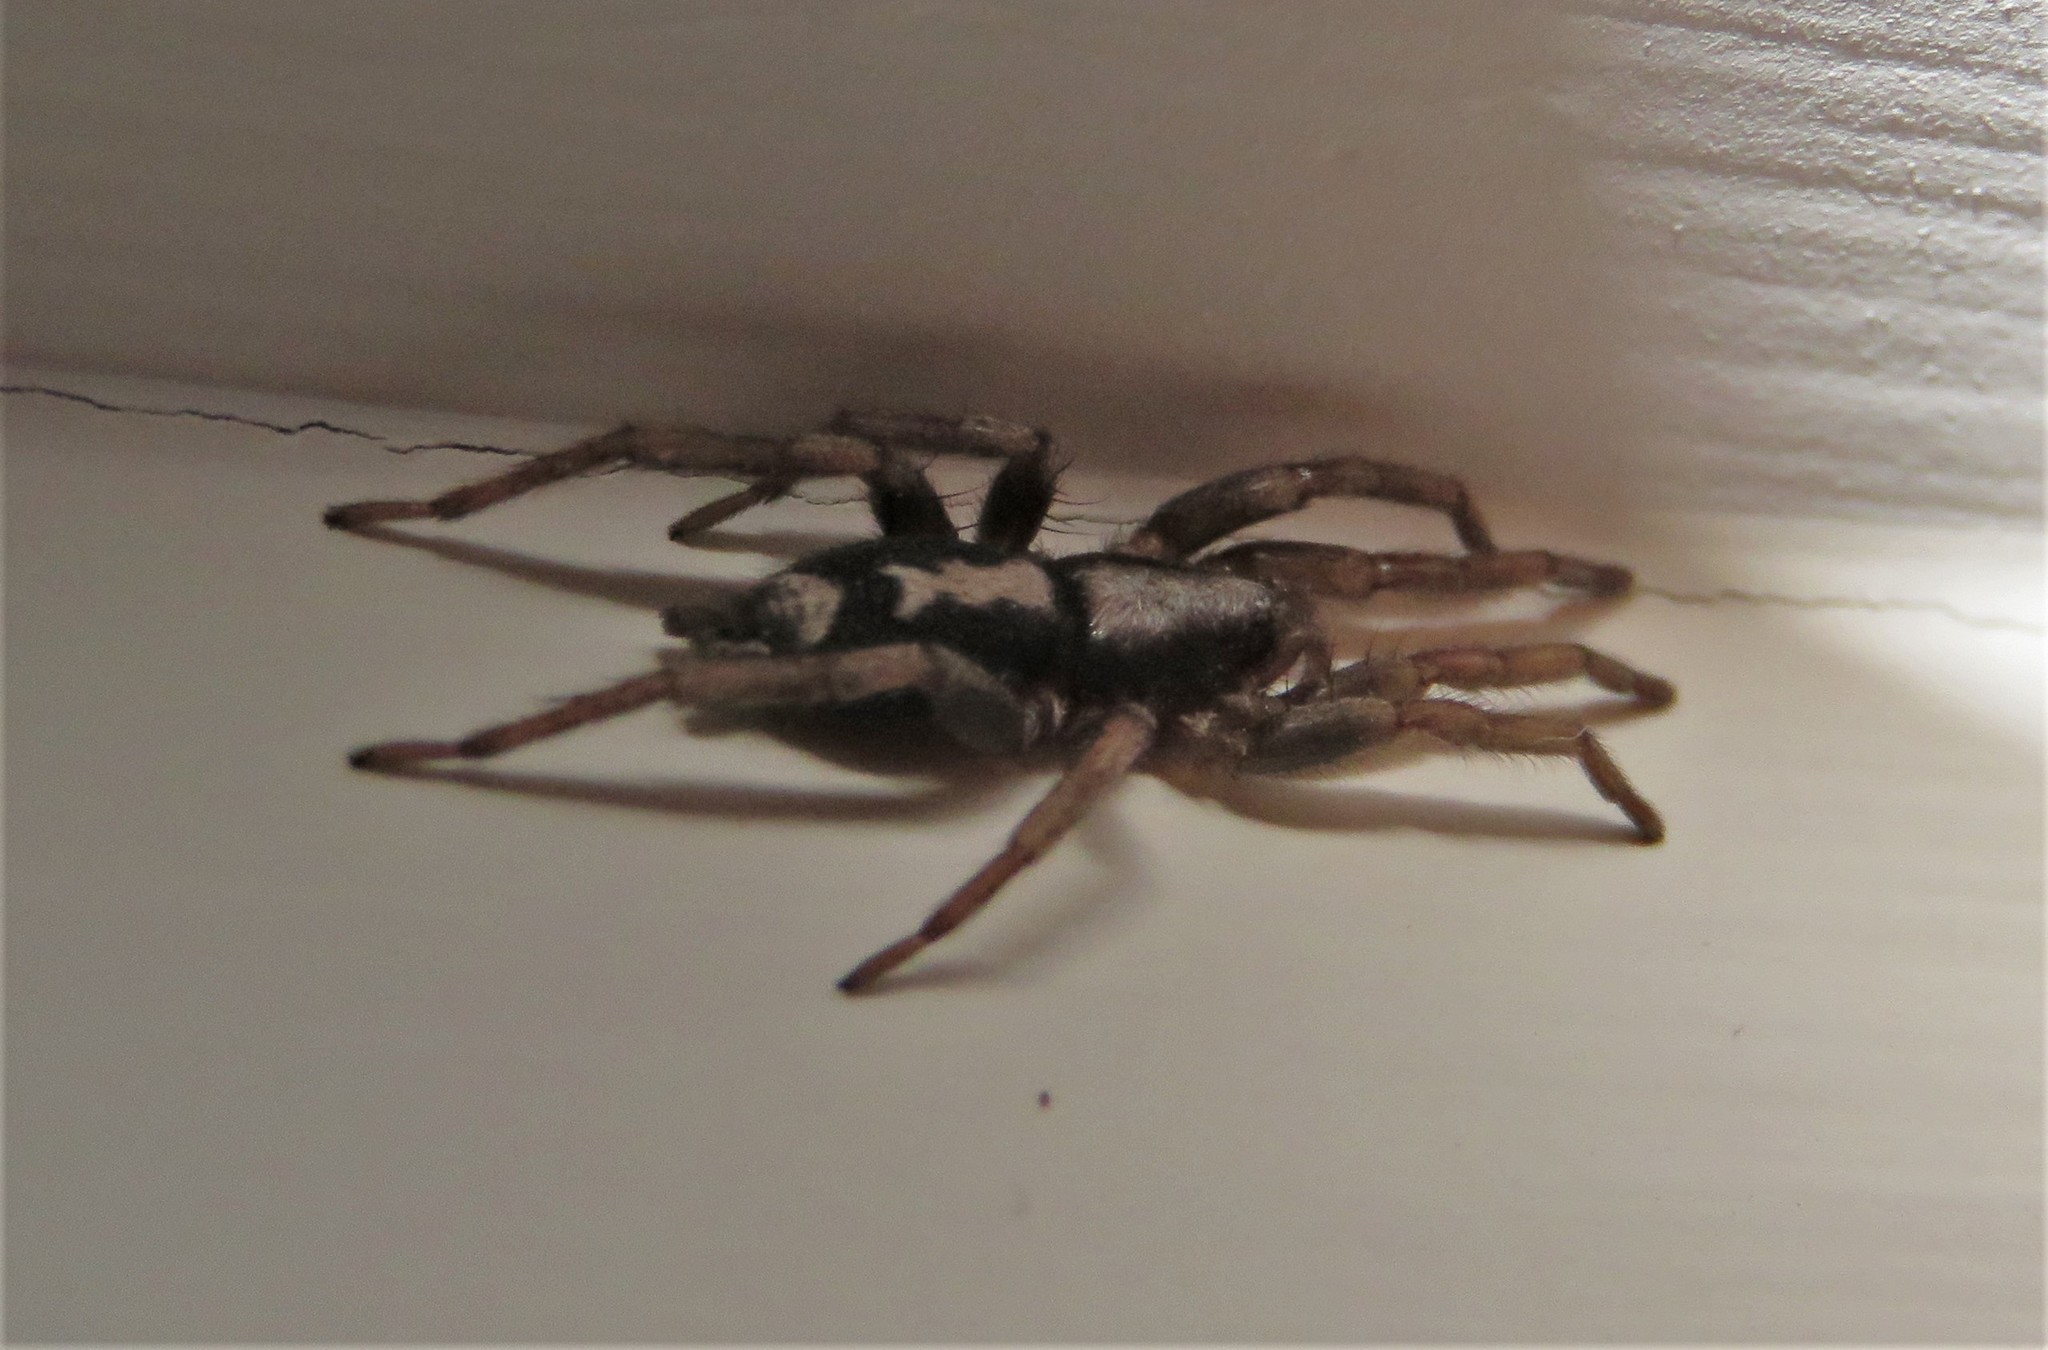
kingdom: Animalia
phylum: Arthropoda
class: Arachnida
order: Araneae
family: Gnaphosidae
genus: Herpyllus
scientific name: Herpyllus ecclesiasticus
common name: Eastern parson spider
